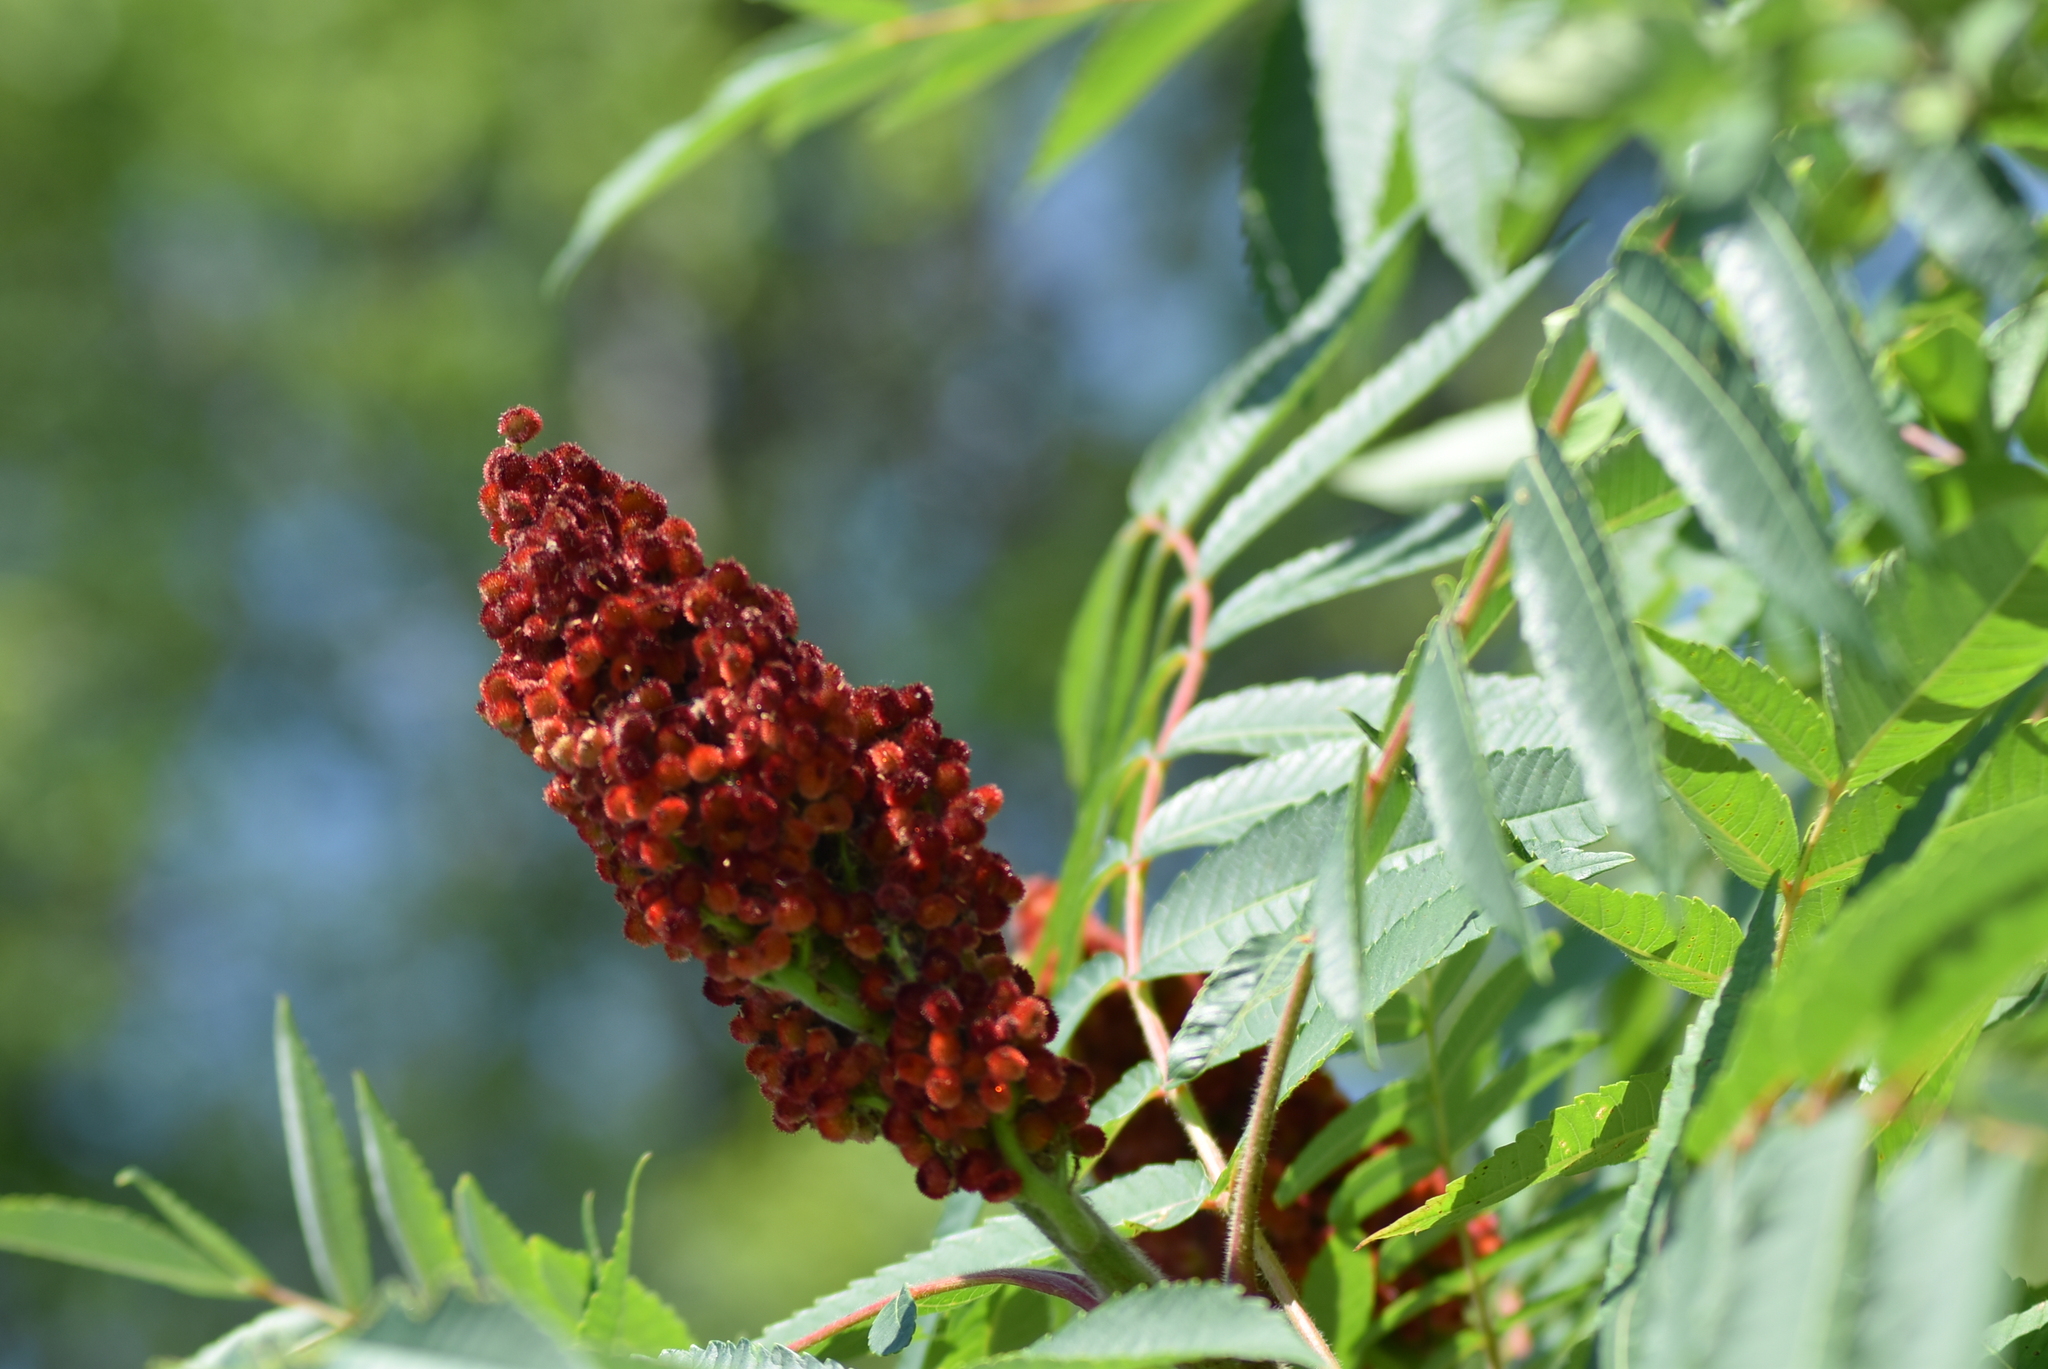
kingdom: Plantae
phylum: Tracheophyta
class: Magnoliopsida
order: Sapindales
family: Anacardiaceae
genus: Rhus
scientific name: Rhus typhina
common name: Staghorn sumac
